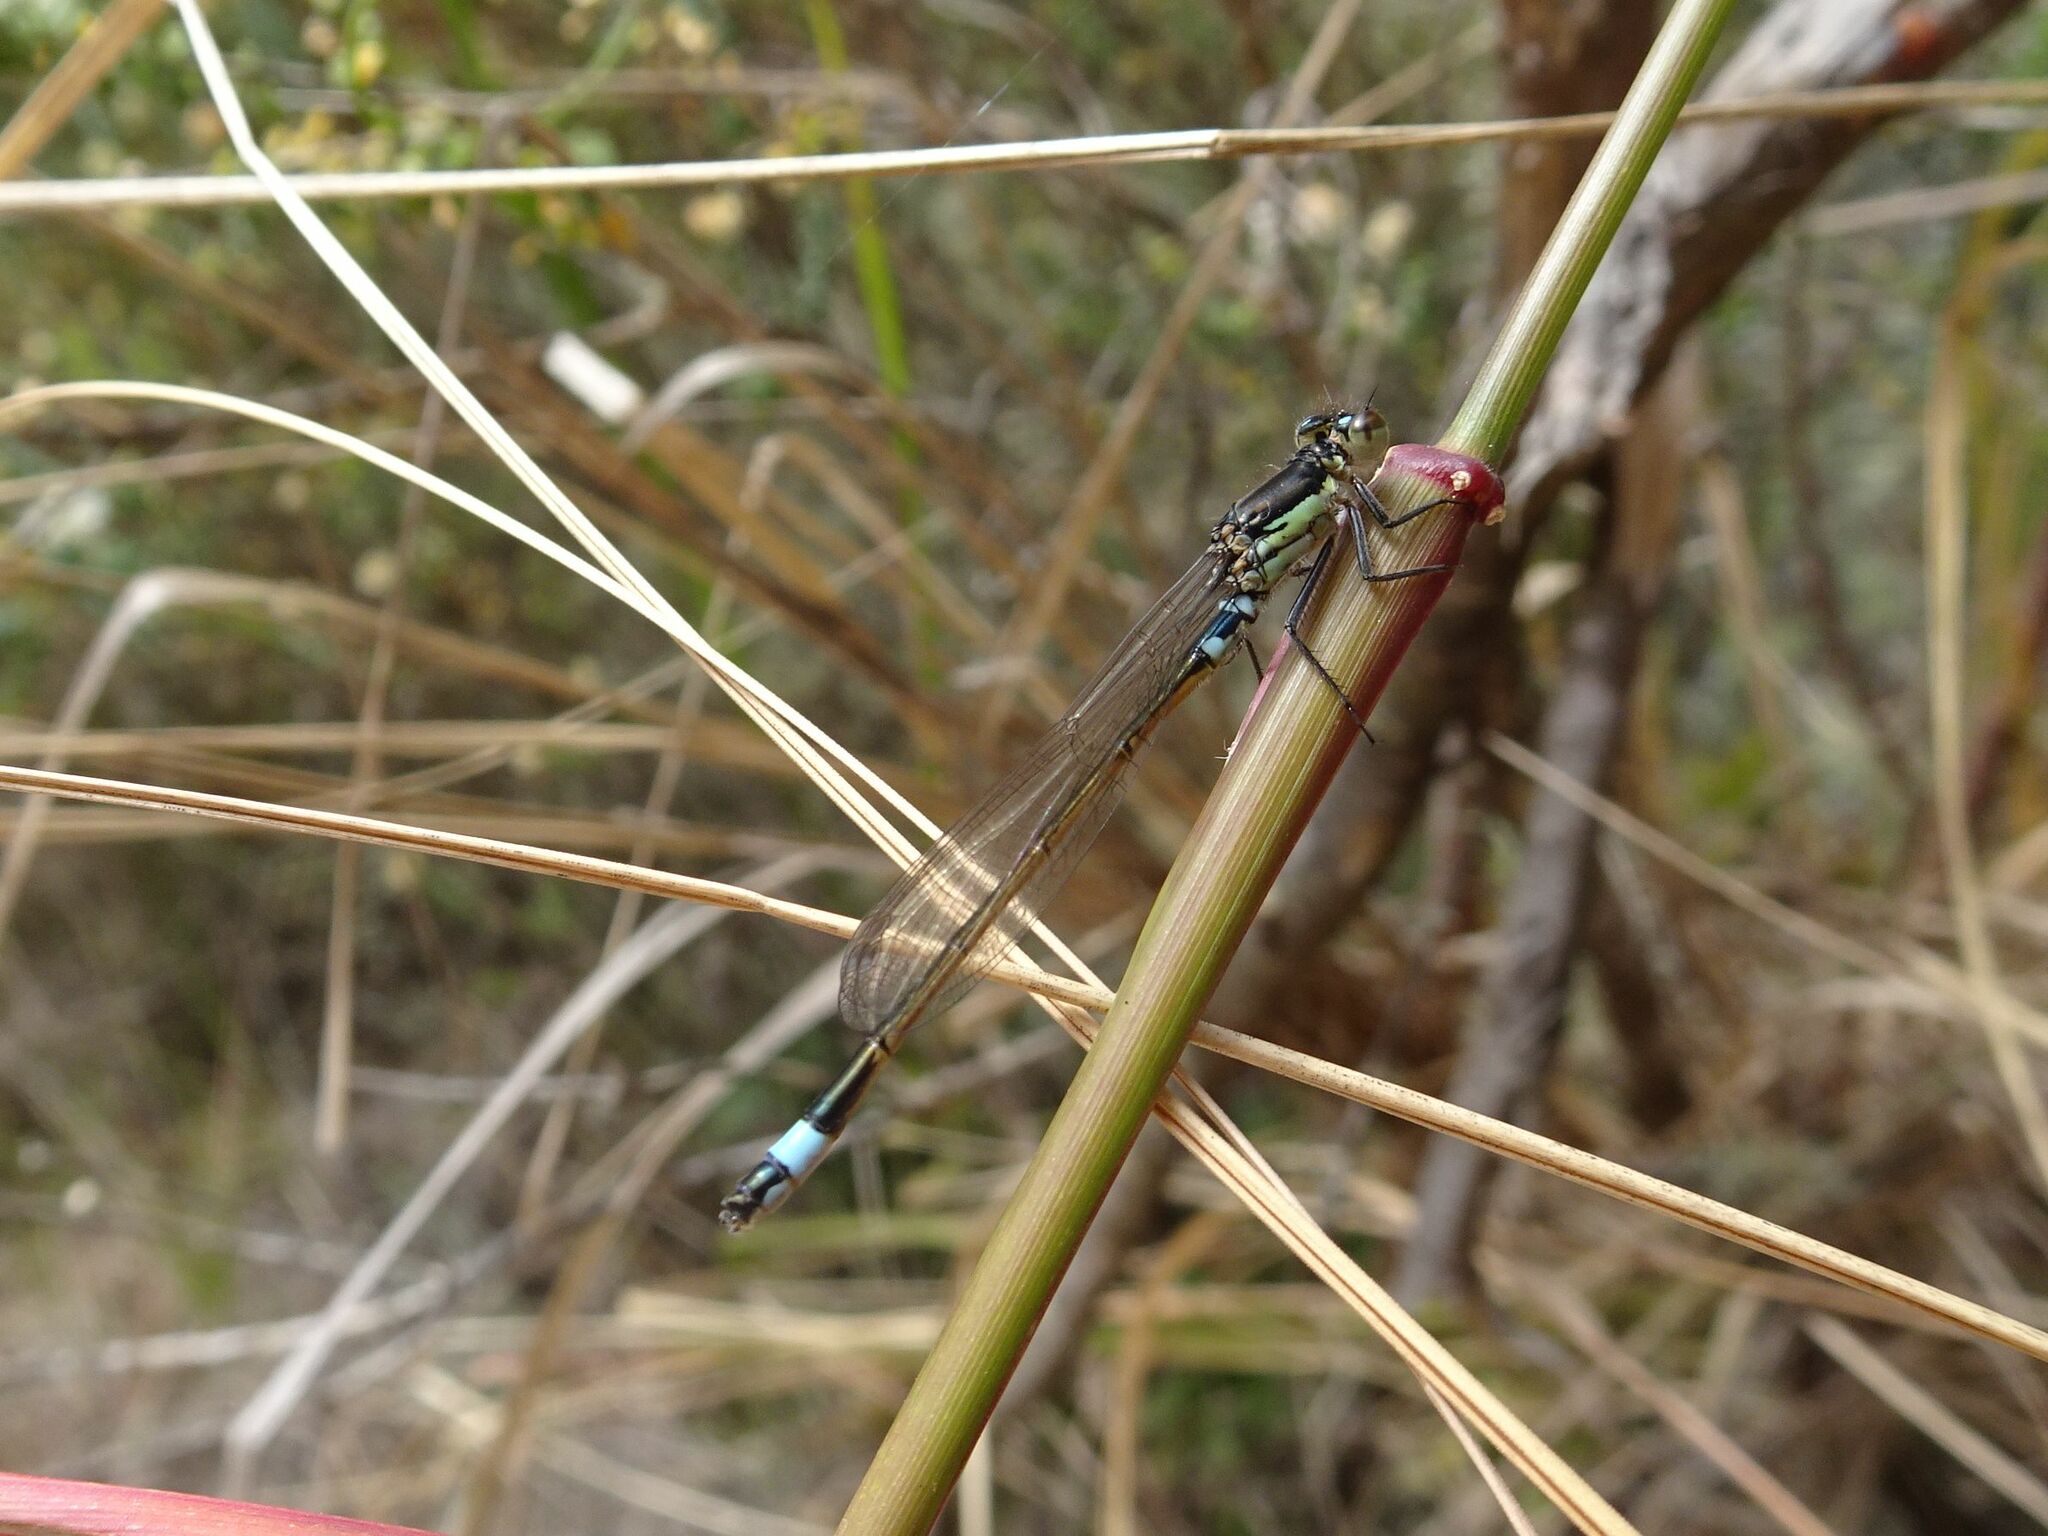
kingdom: Animalia
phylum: Arthropoda
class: Insecta
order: Odonata
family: Coenagrionidae
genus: Ischnura
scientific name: Ischnura senegalensis
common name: Tropical bluetail
